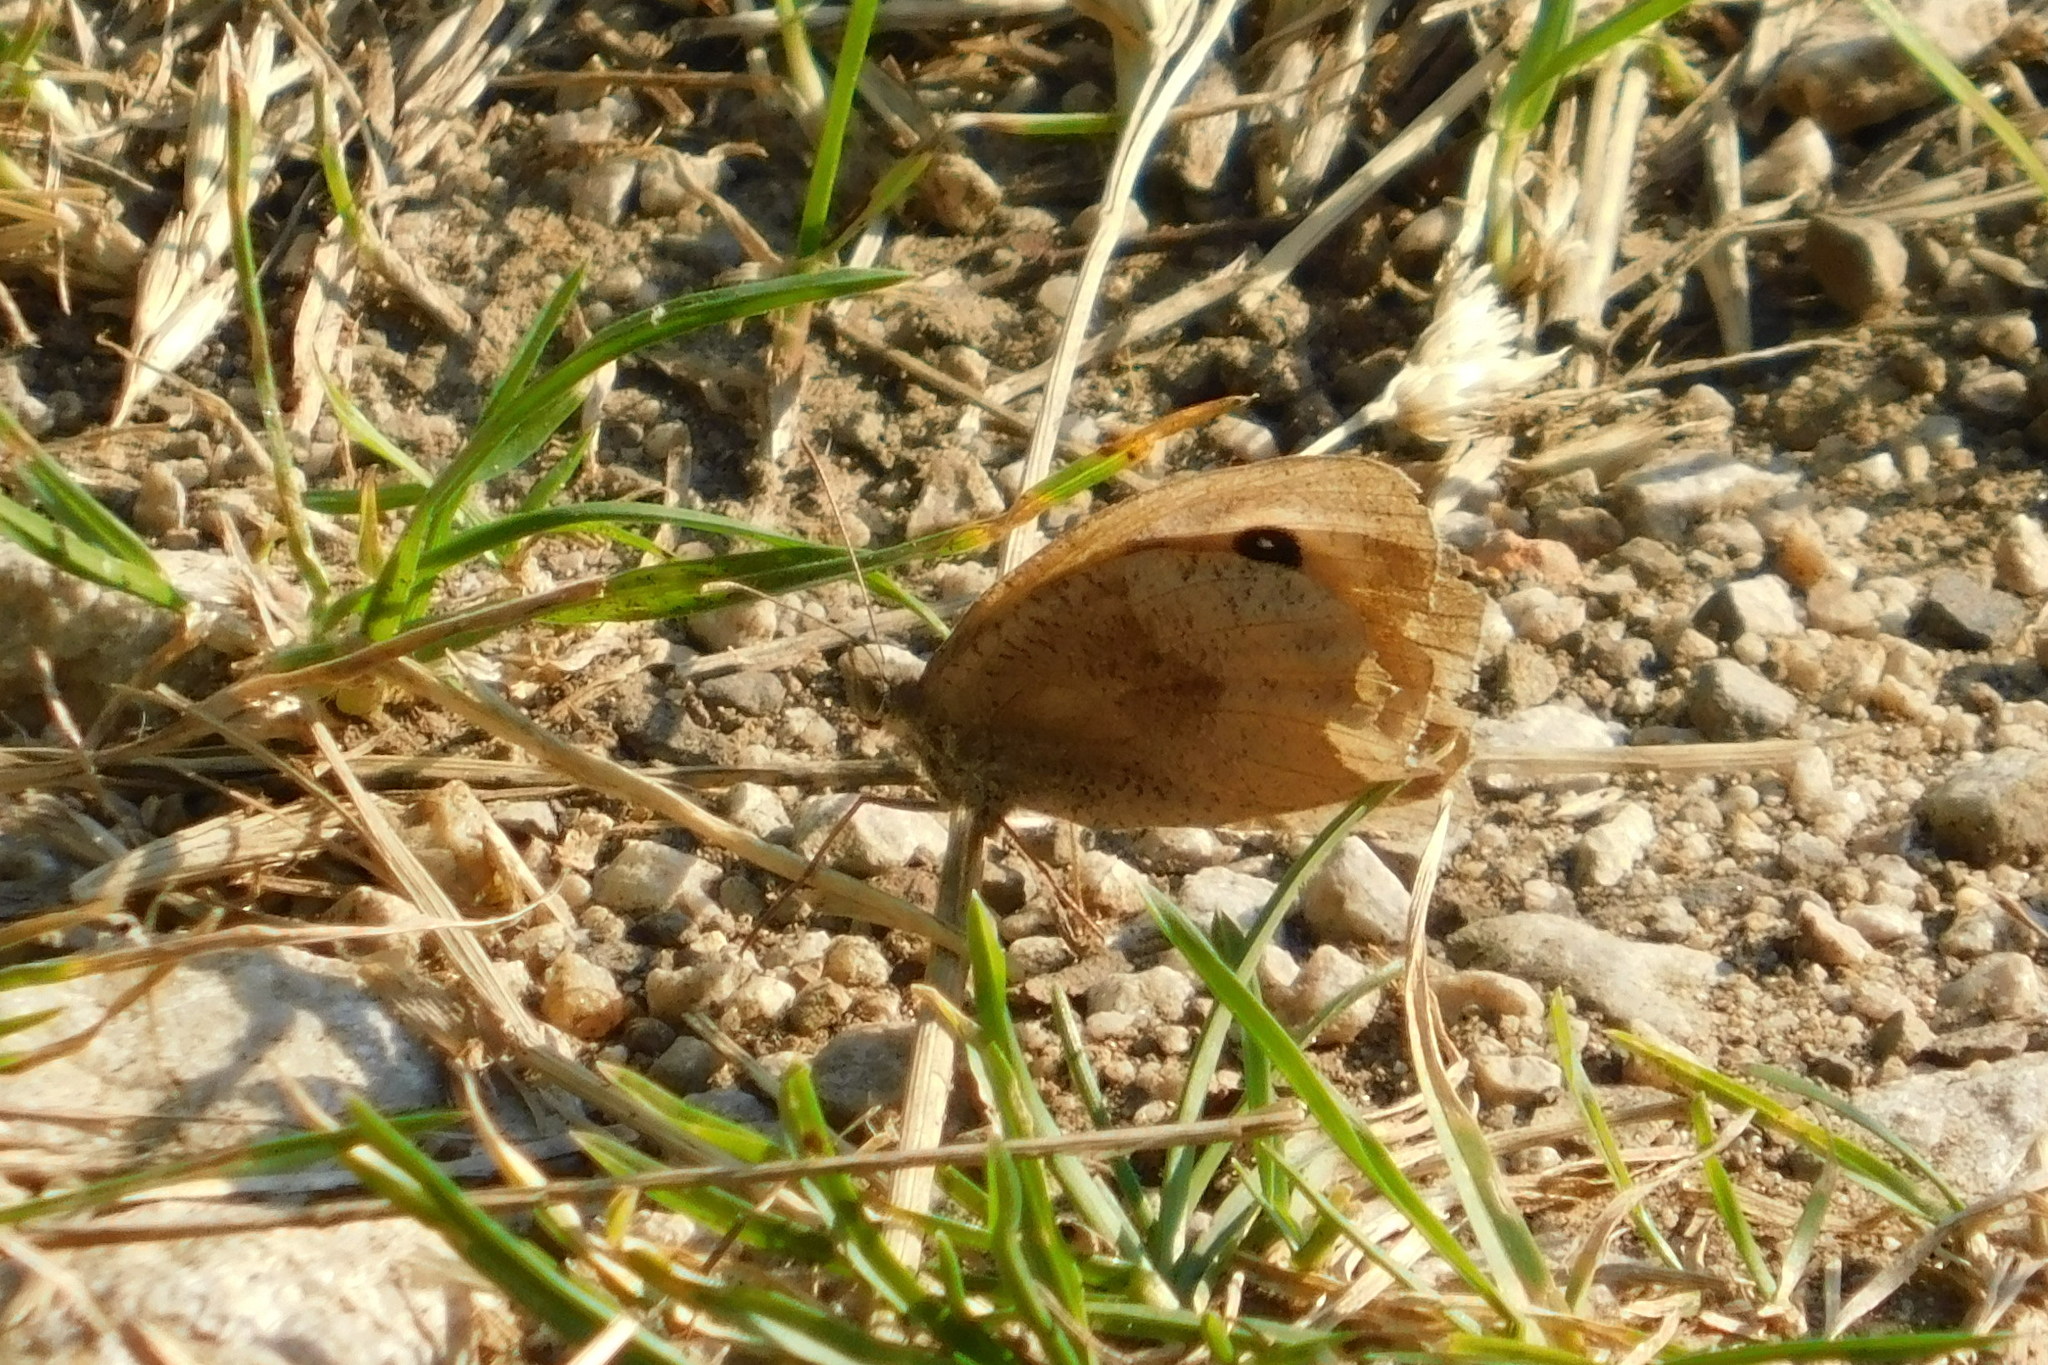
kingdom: Animalia
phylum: Arthropoda
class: Insecta
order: Lepidoptera
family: Nymphalidae
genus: Maniola
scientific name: Maniola jurtina
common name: Meadow brown
